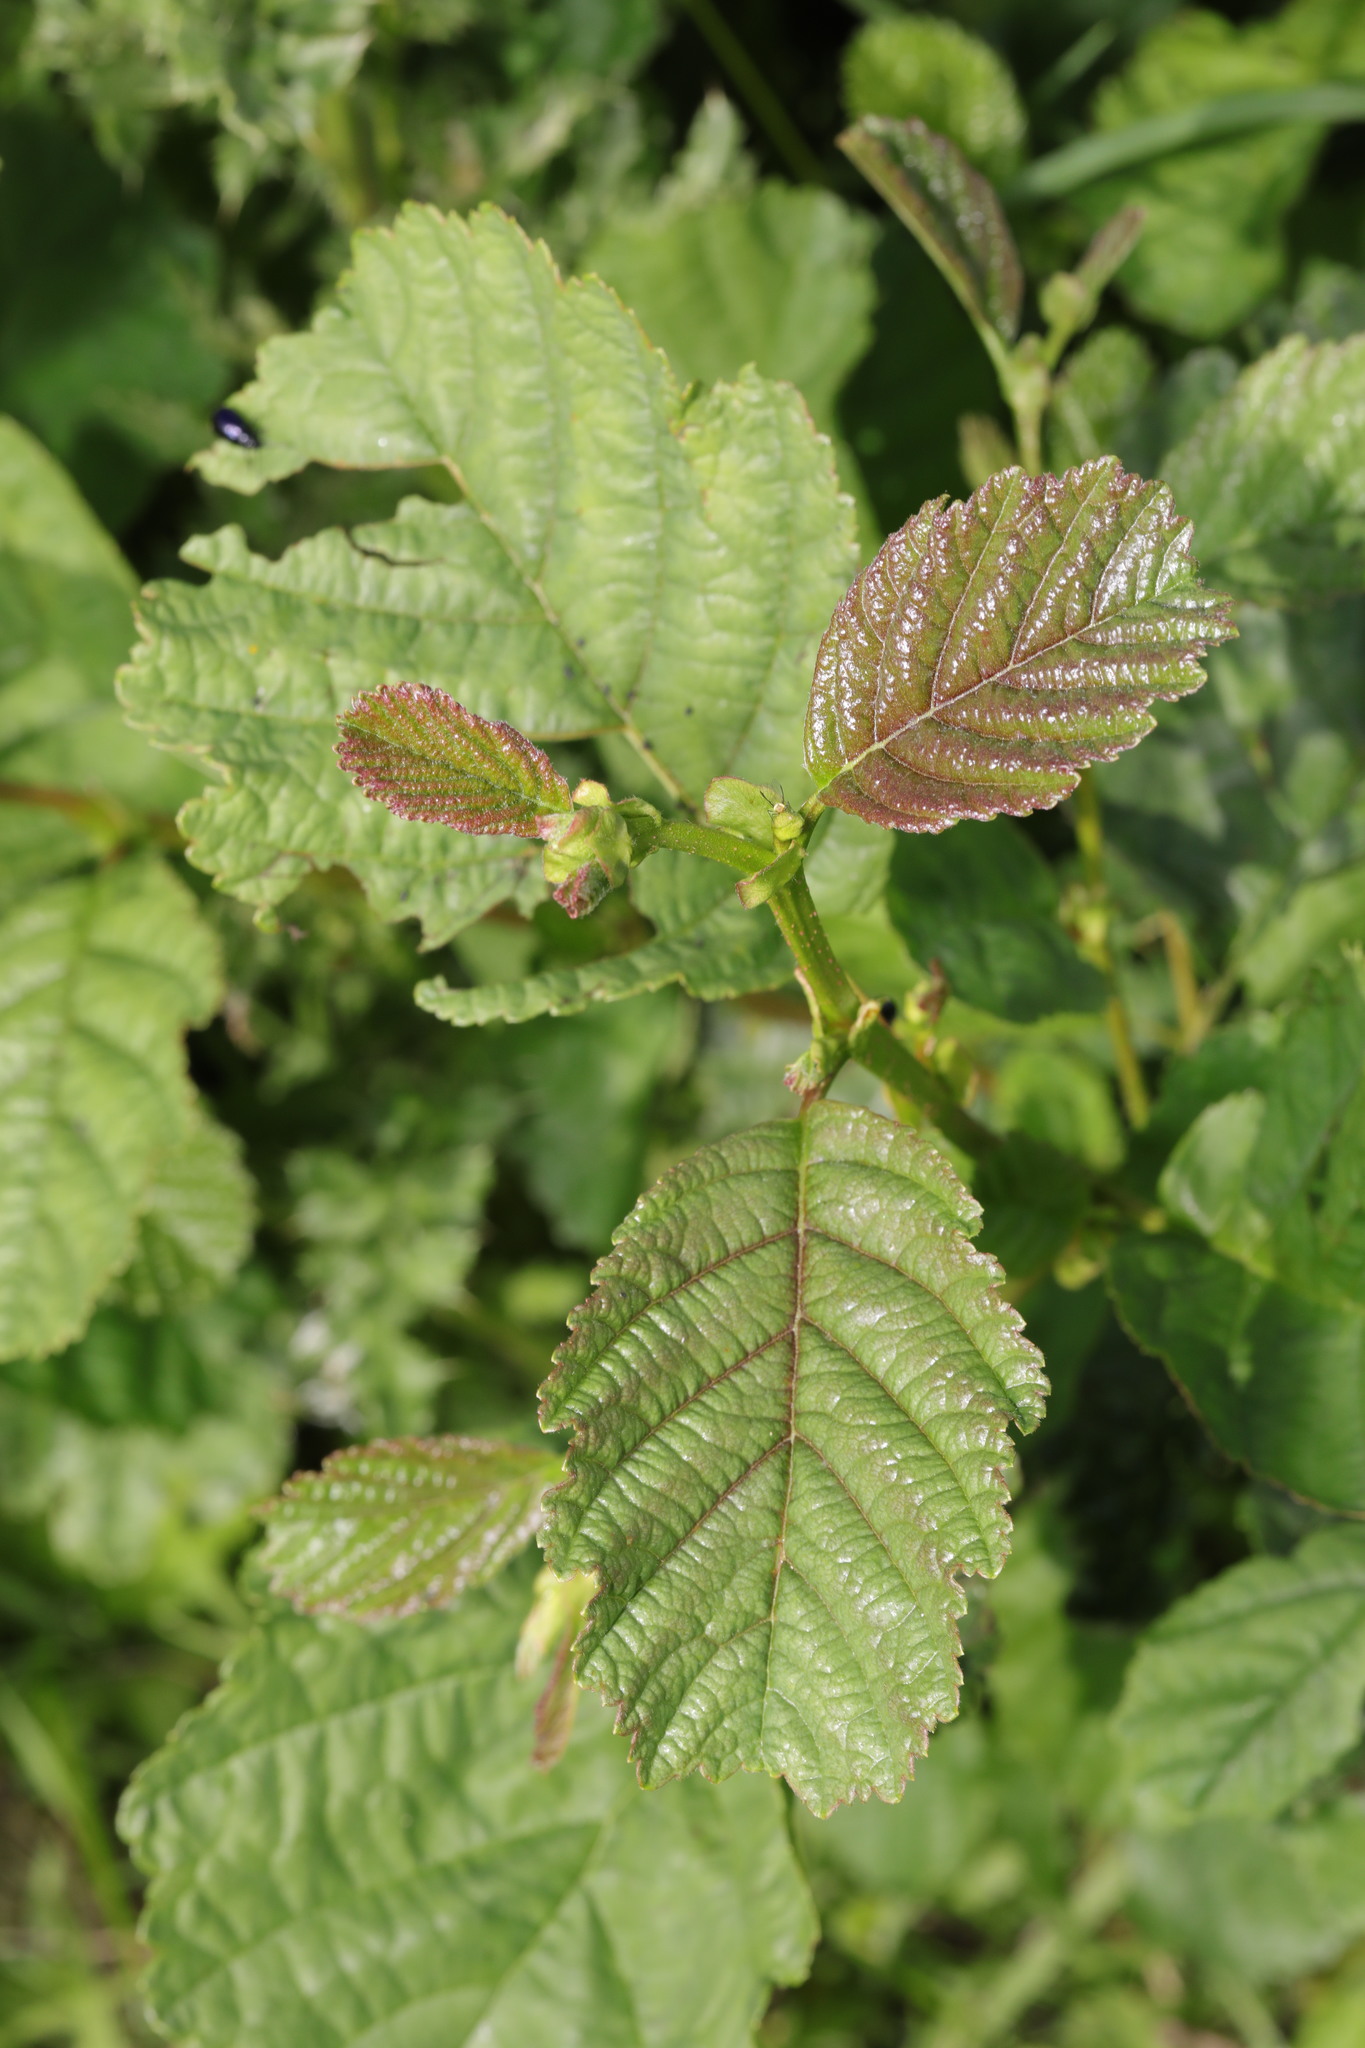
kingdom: Plantae
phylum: Tracheophyta
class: Magnoliopsida
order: Fagales
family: Betulaceae
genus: Alnus
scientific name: Alnus glutinosa
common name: Black alder
